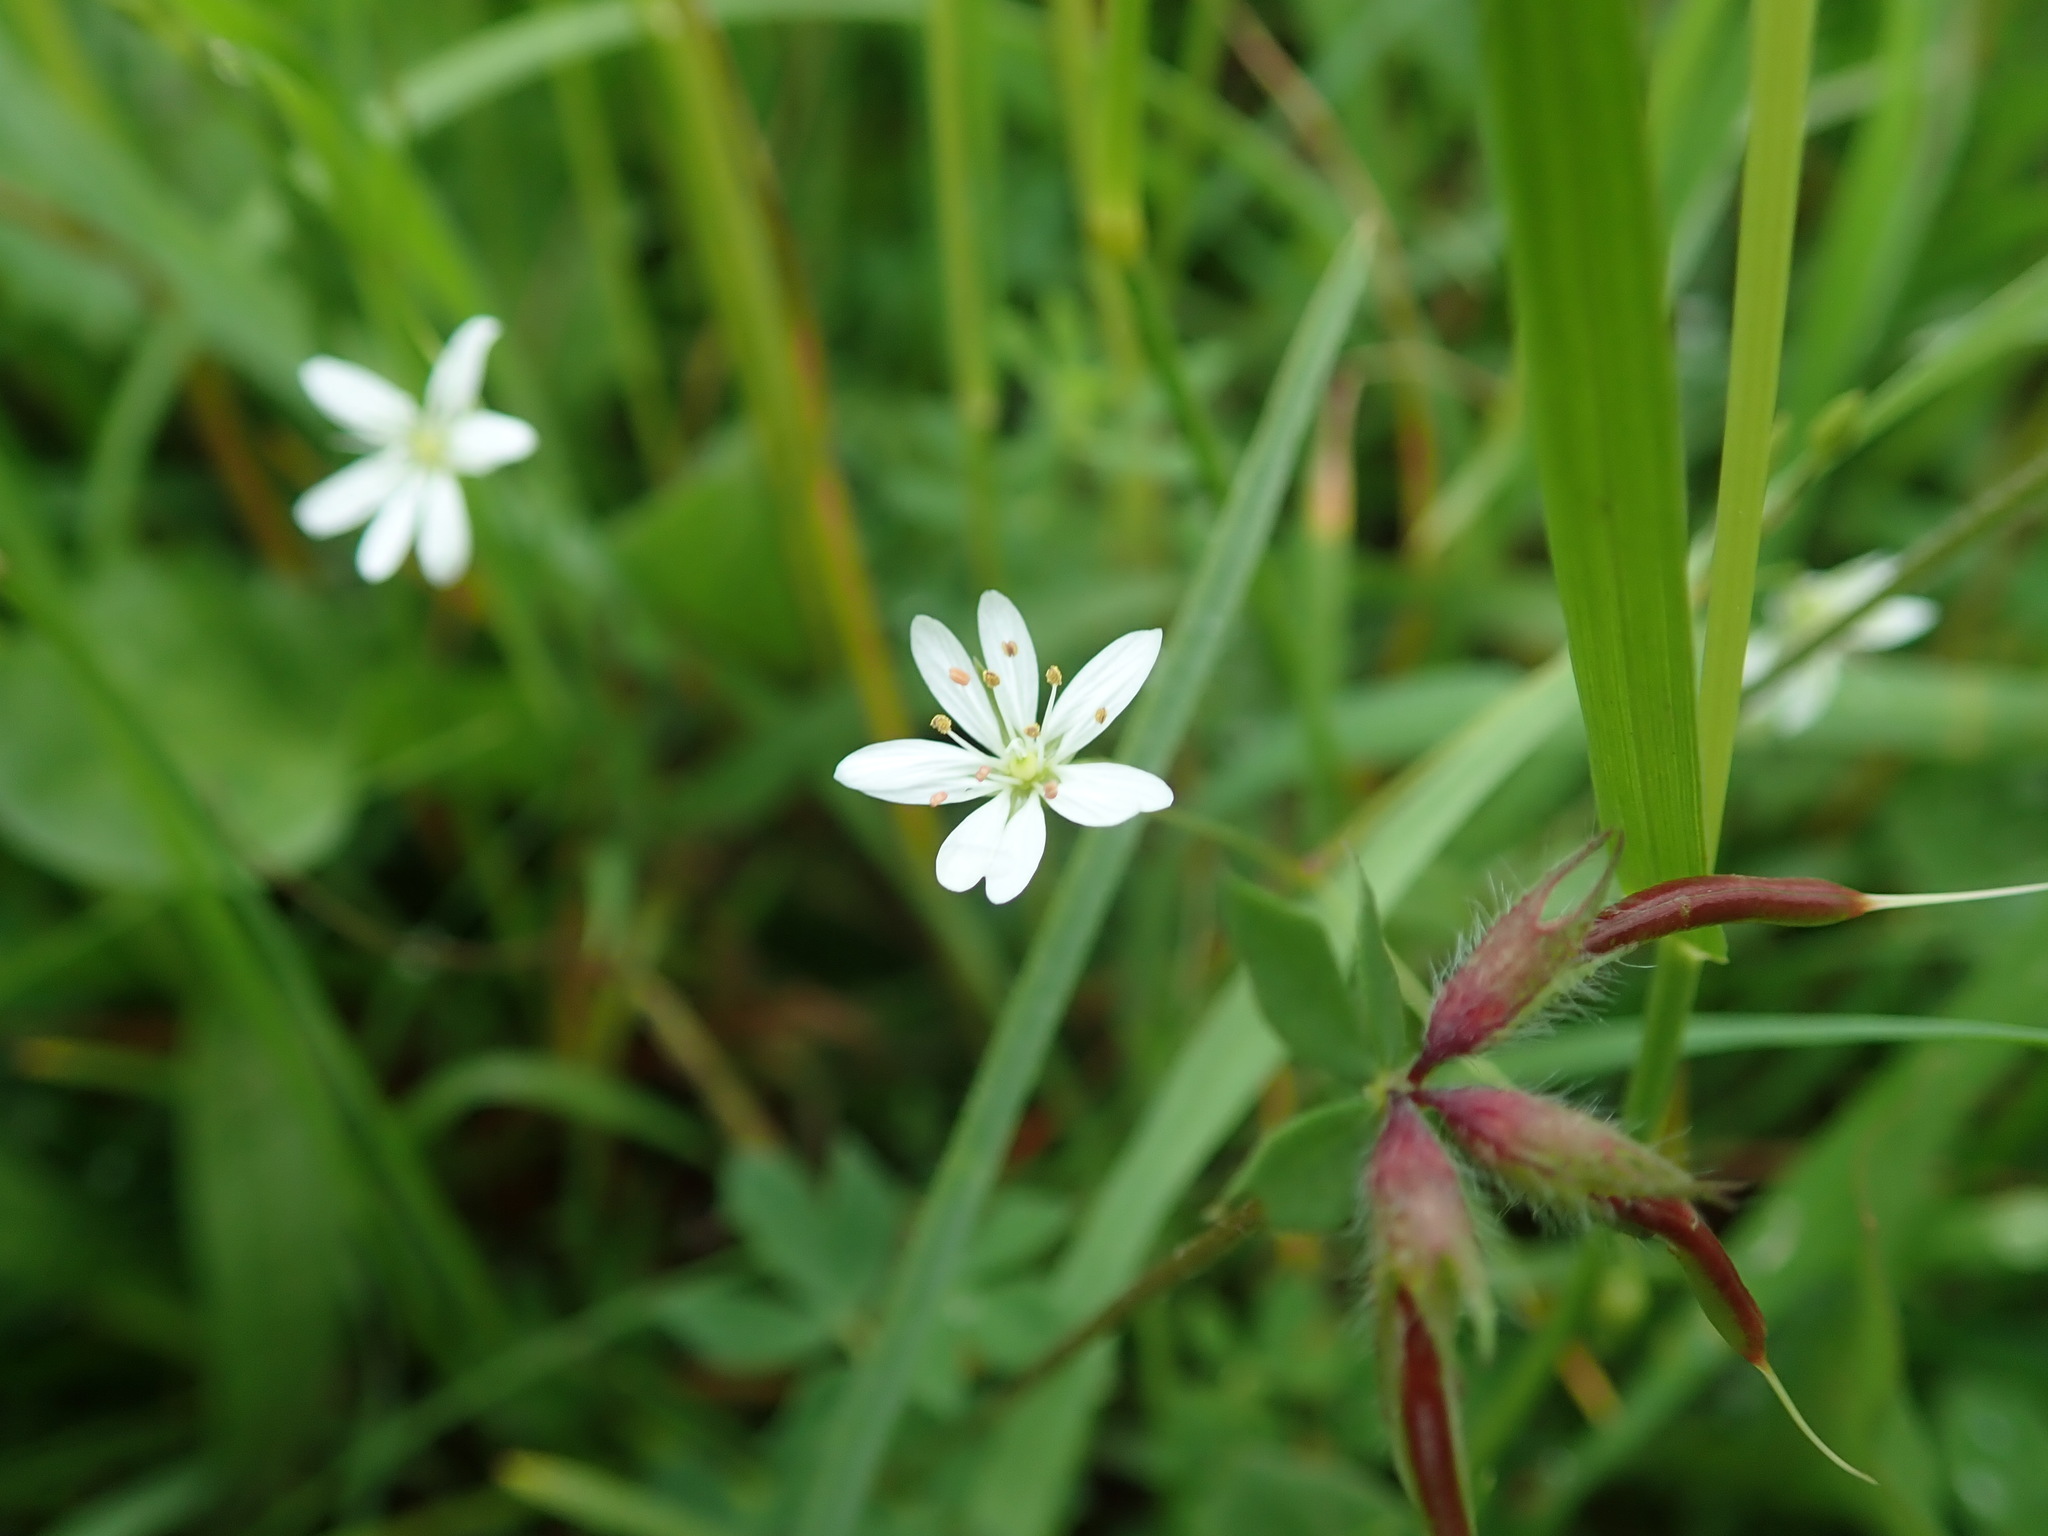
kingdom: Plantae
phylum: Tracheophyta
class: Magnoliopsida
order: Caryophyllales
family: Caryophyllaceae
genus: Stellaria
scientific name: Stellaria graminea
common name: Grass-like starwort
